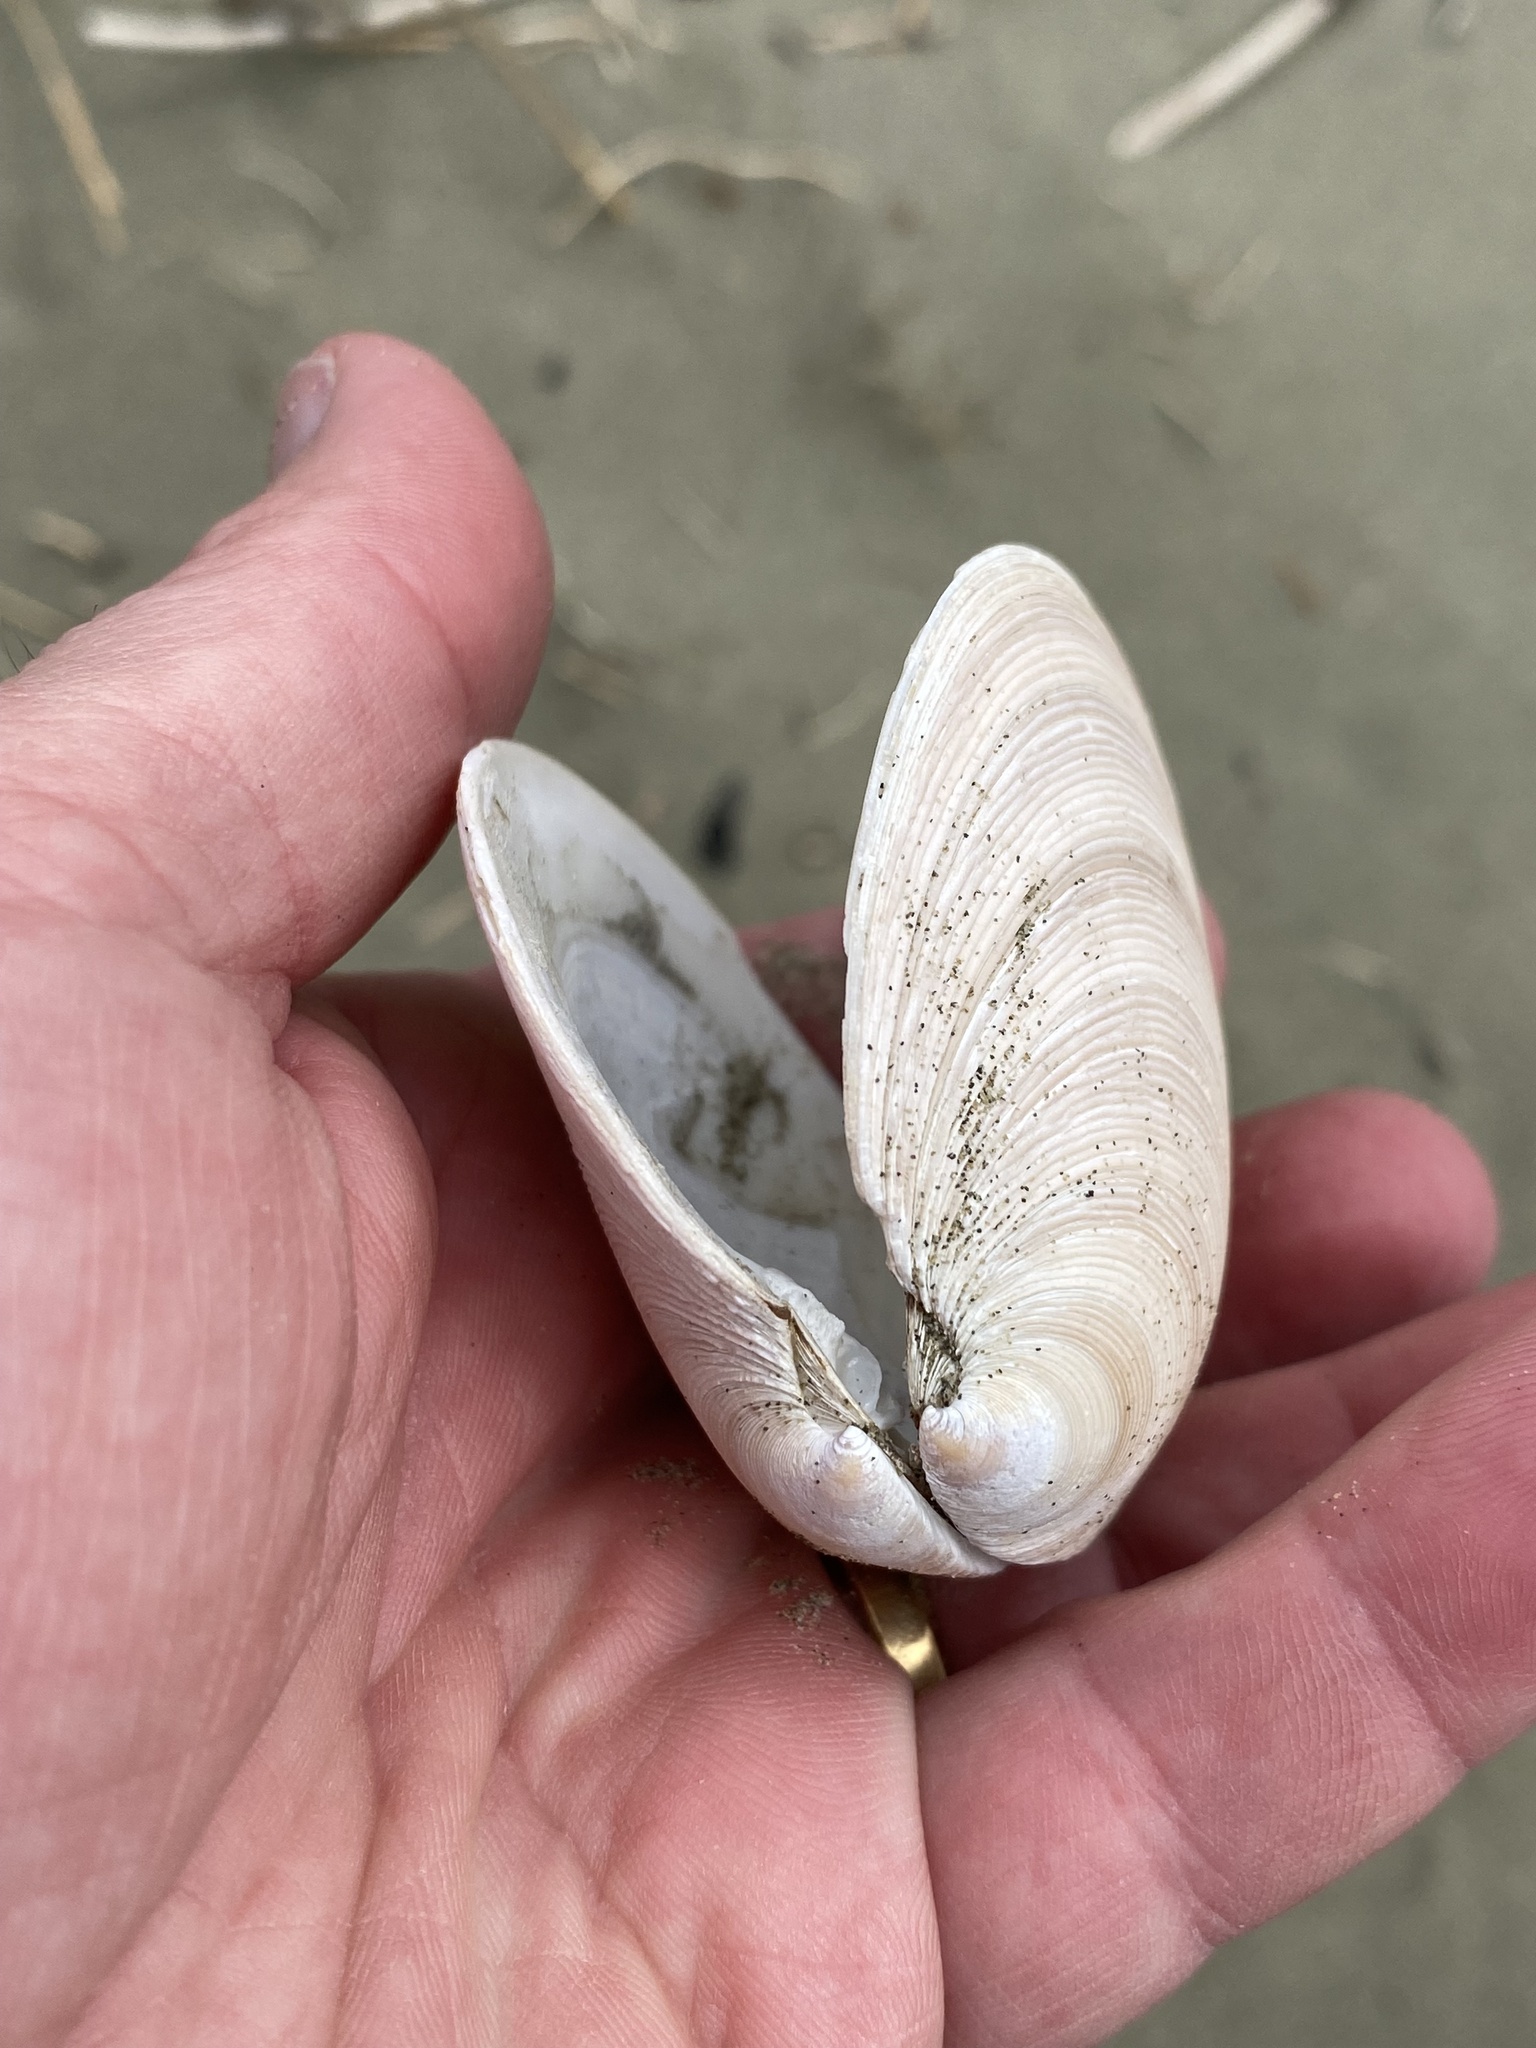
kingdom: Animalia
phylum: Mollusca
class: Bivalvia
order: Venerida
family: Veneridae
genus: Dosinia
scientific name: Dosinia anus
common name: Old-woman dosinia
